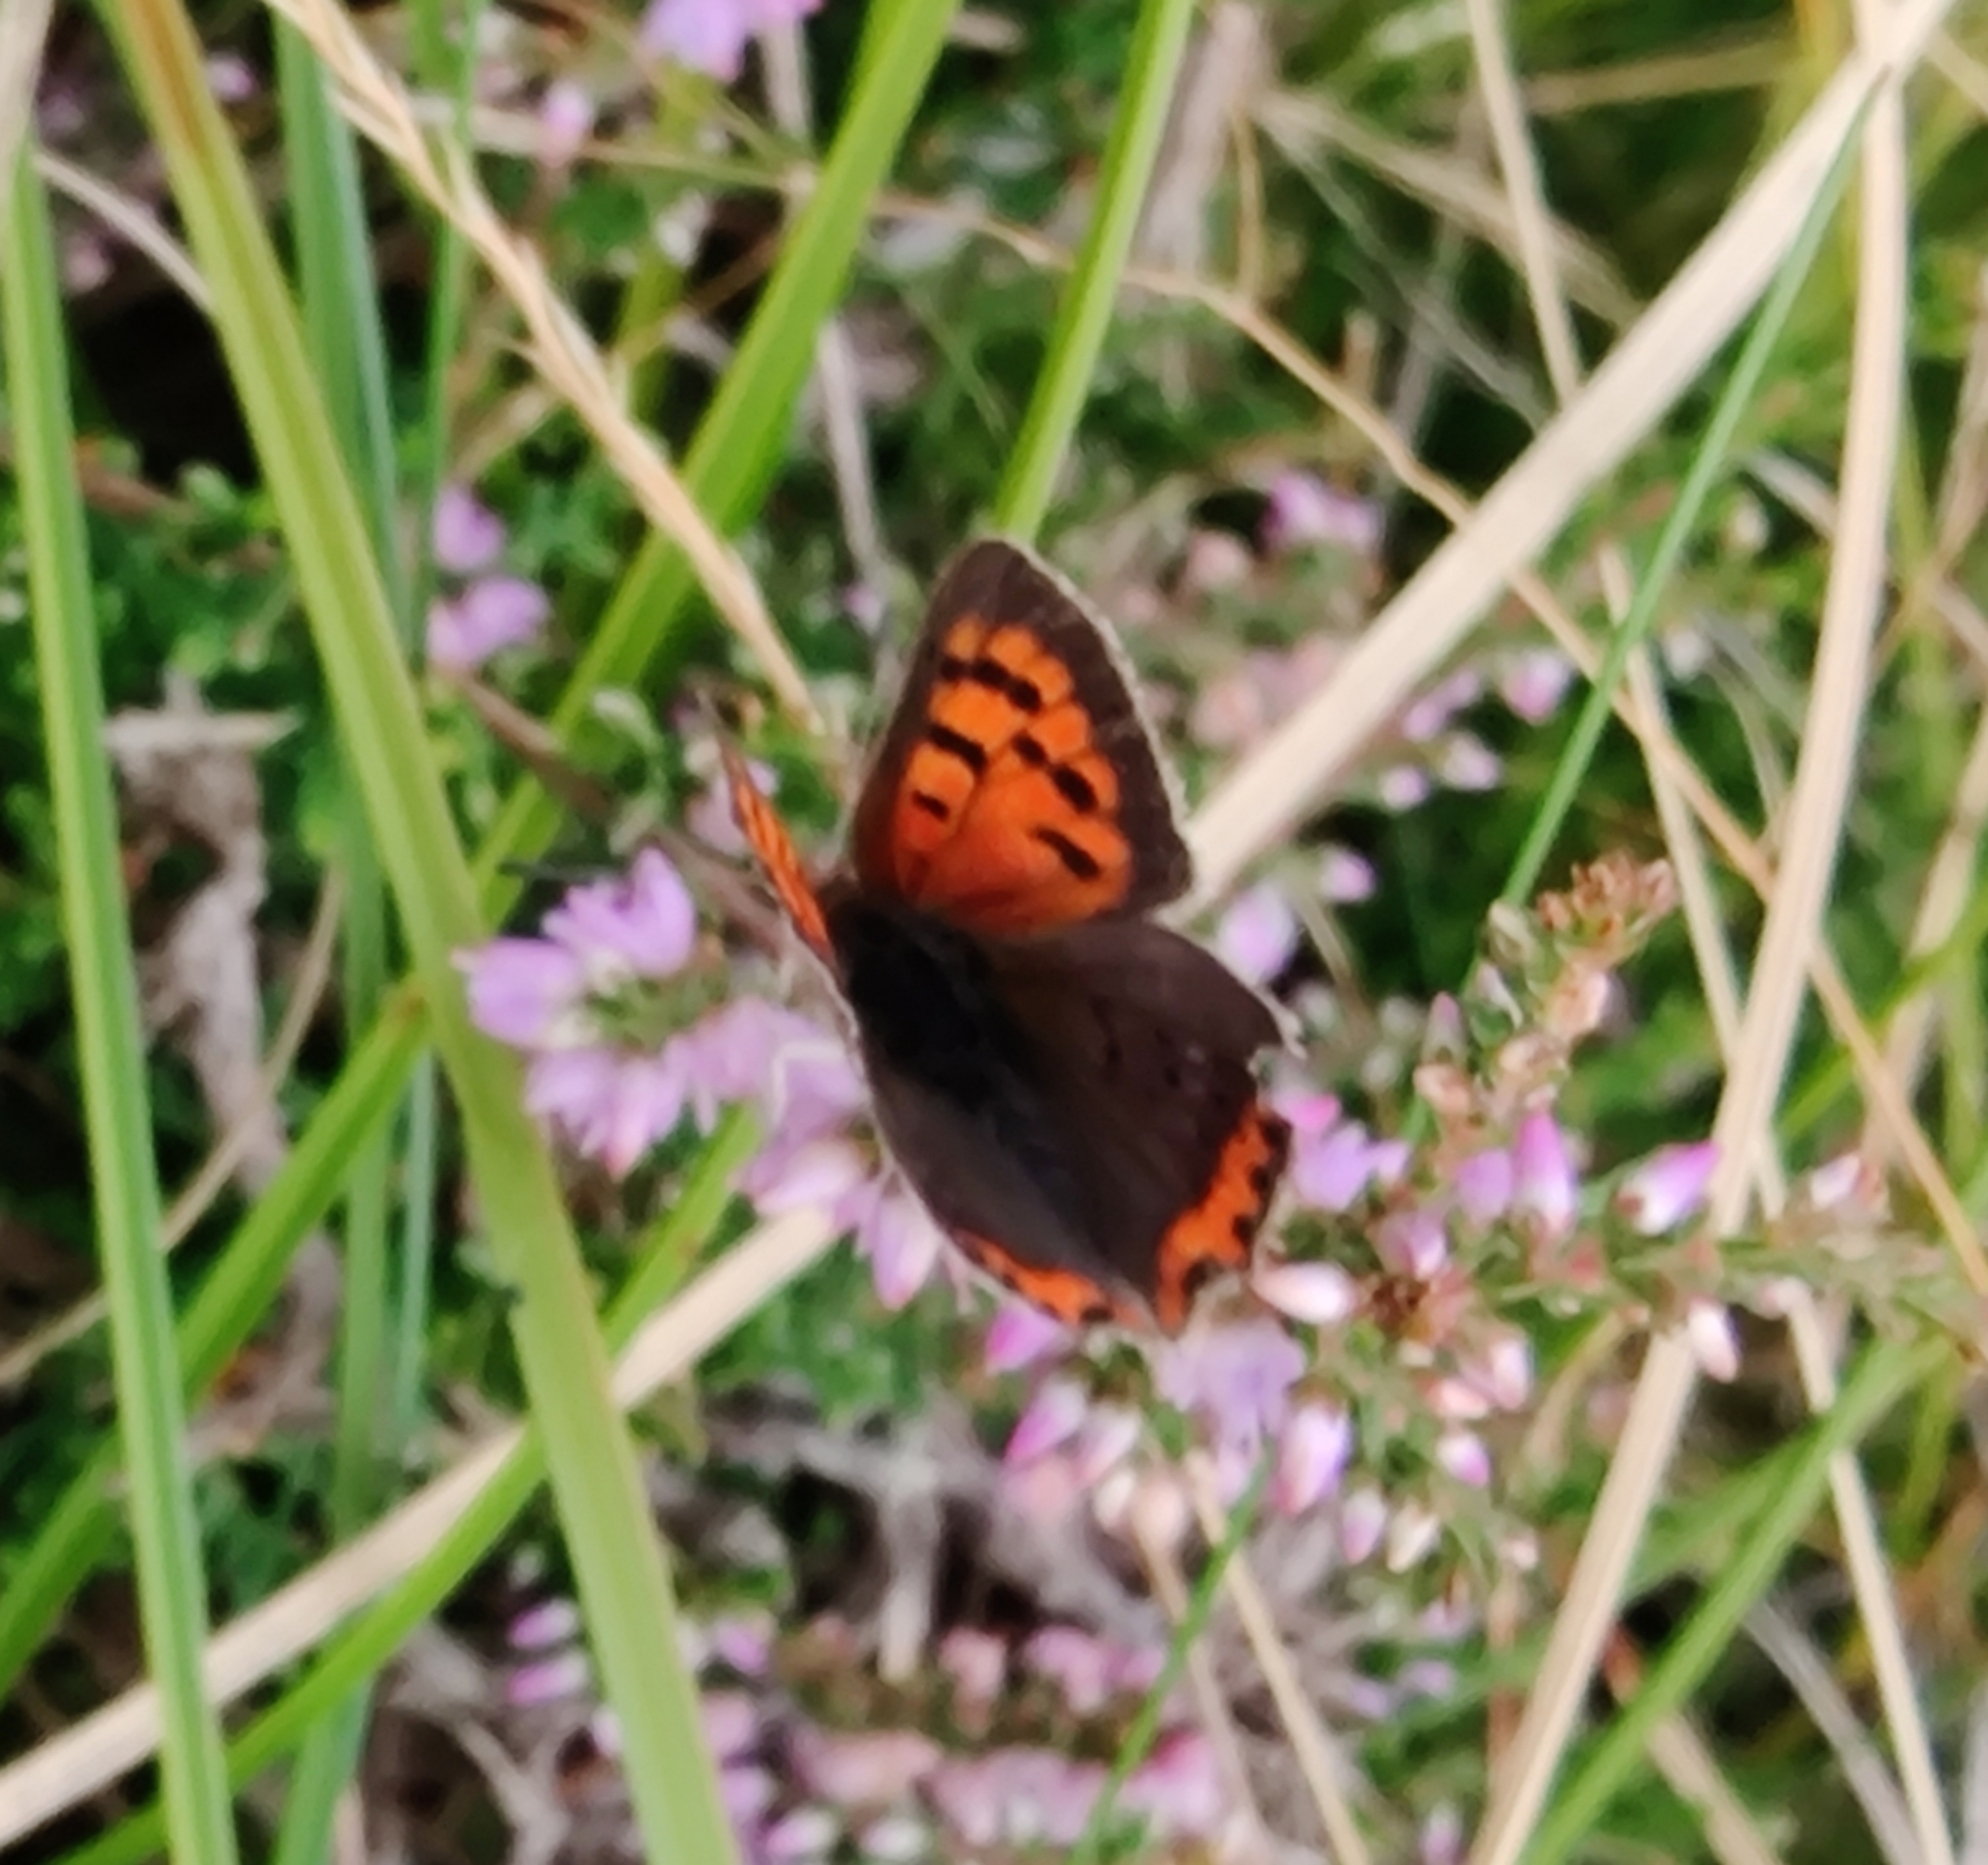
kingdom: Animalia
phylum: Arthropoda
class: Insecta
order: Lepidoptera
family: Lycaenidae
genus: Lycaena
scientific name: Lycaena phlaeas
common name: Small copper
